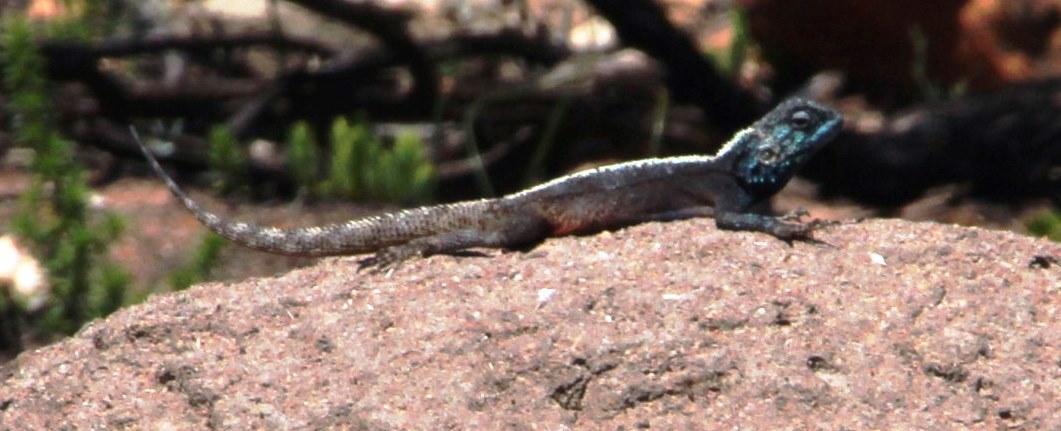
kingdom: Animalia
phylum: Chordata
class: Squamata
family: Agamidae
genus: Agama
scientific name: Agama atra
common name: Southern african rock agama
